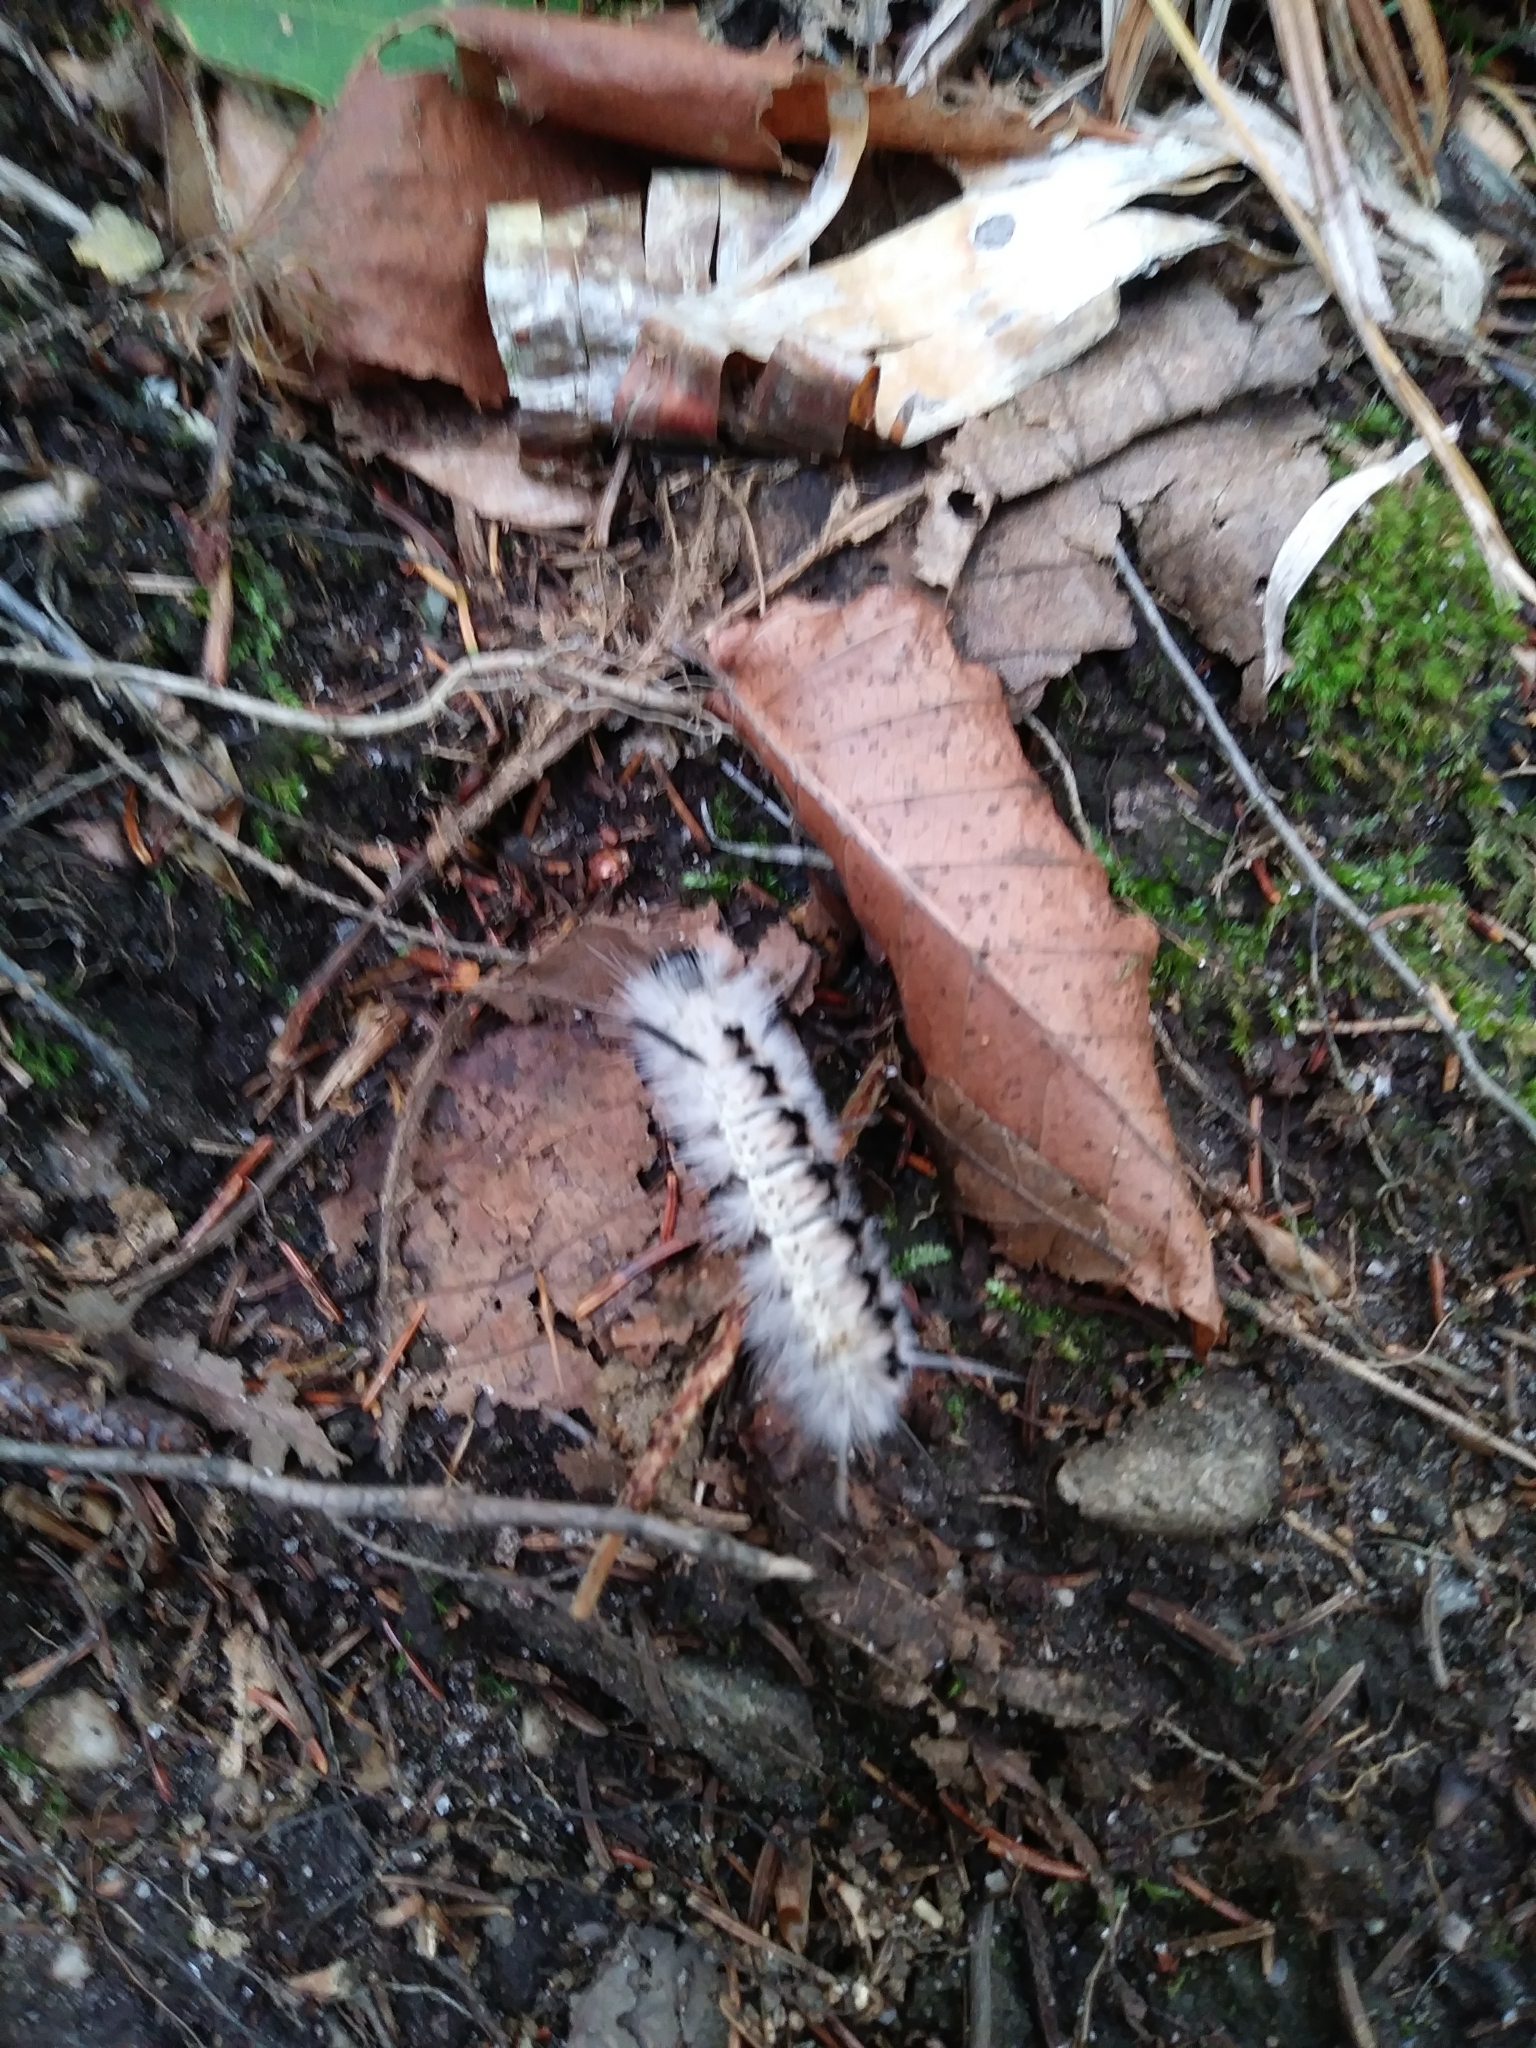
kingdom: Animalia
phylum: Arthropoda
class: Insecta
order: Lepidoptera
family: Erebidae
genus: Lophocampa
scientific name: Lophocampa caryae
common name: Hickory tussock moth
